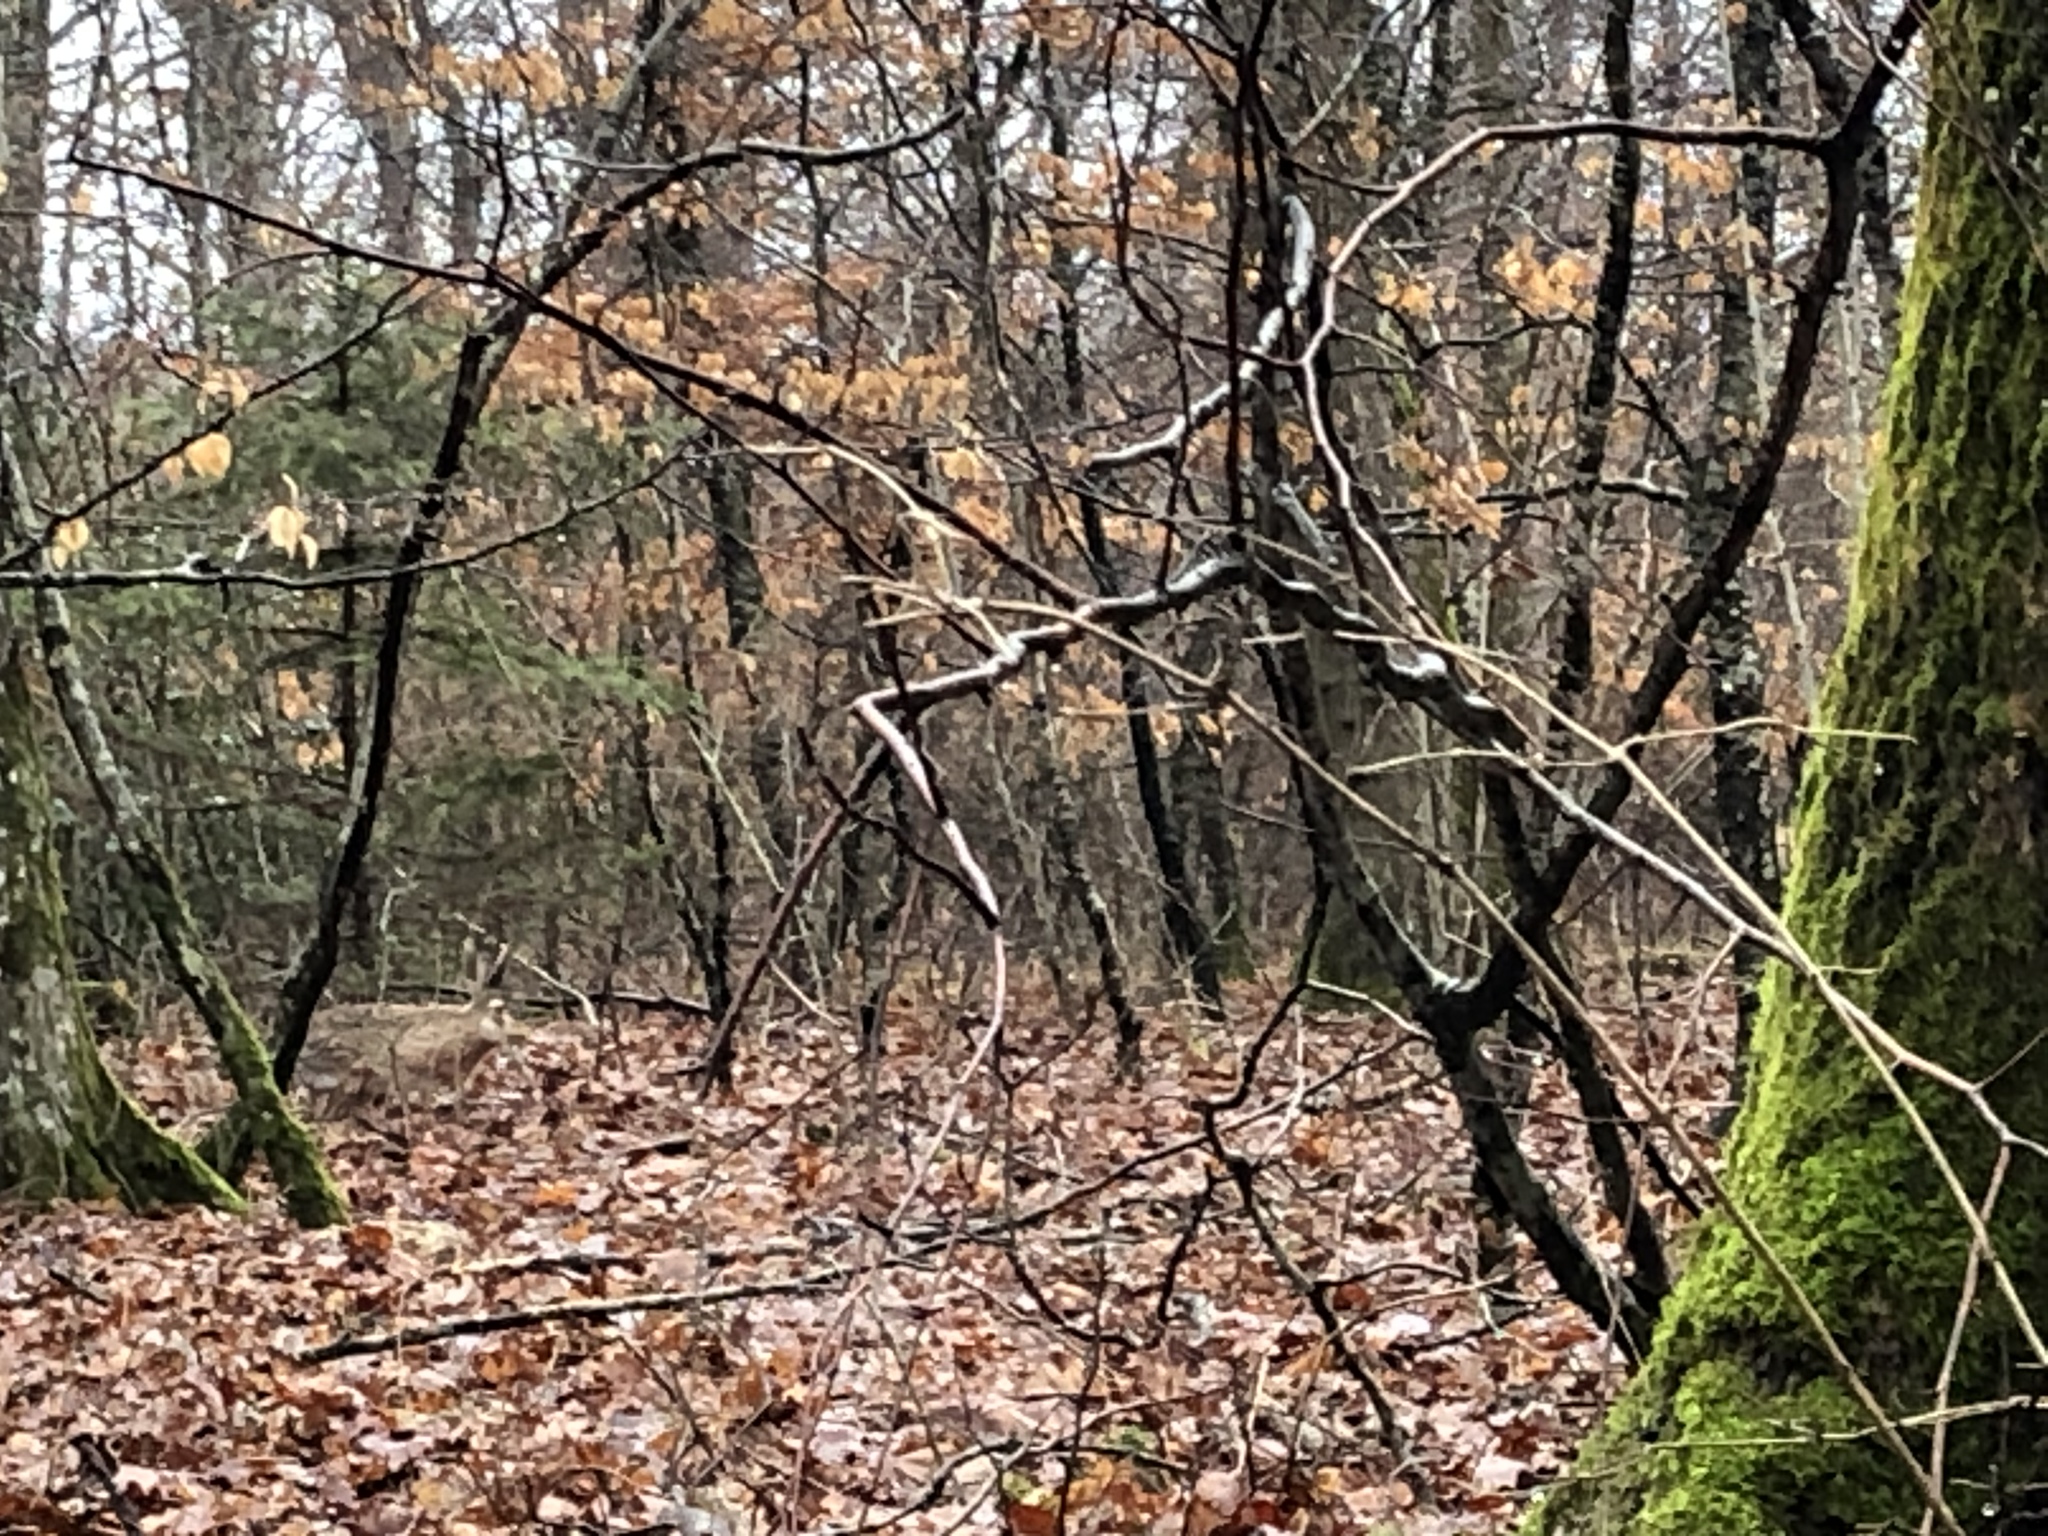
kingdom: Animalia
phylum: Chordata
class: Mammalia
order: Lagomorpha
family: Leporidae
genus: Lepus
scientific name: Lepus europaeus
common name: European hare
